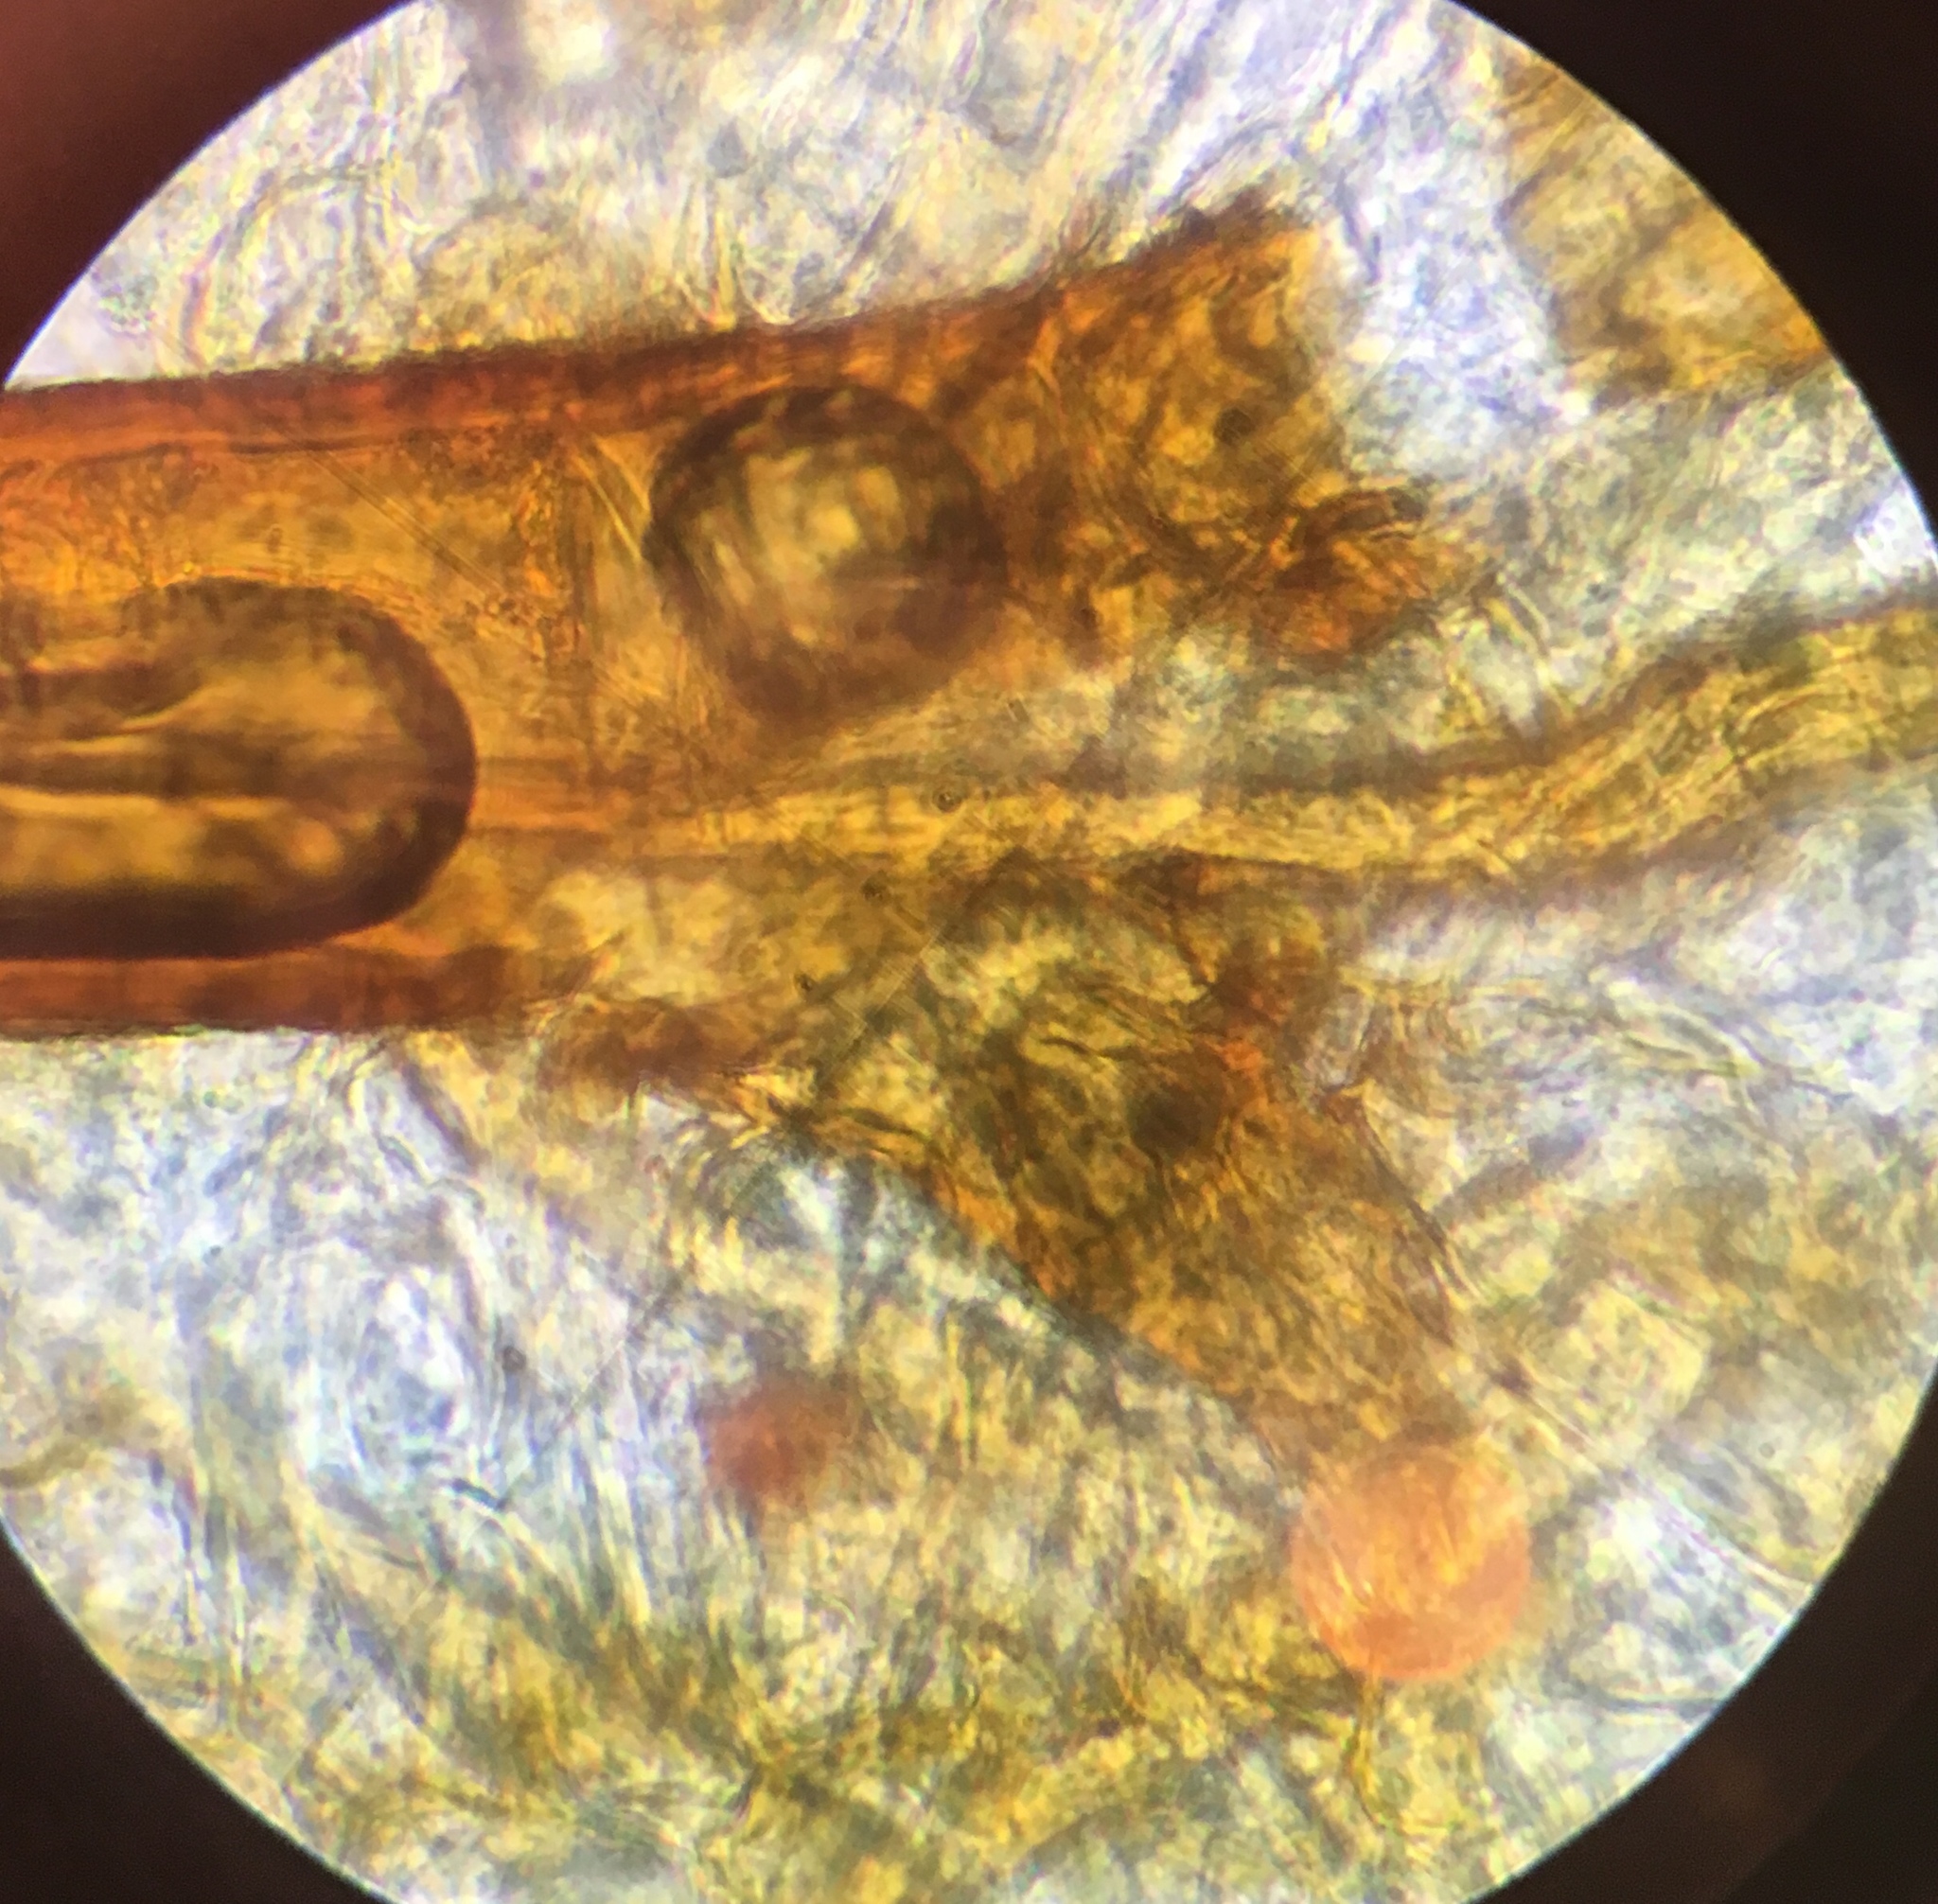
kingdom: Fungi
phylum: Ascomycota
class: Pezizomycetes
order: Pezizales
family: Pyronemataceae
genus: Scutellinia
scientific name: Scutellinia scutellata
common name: Common eyelash
